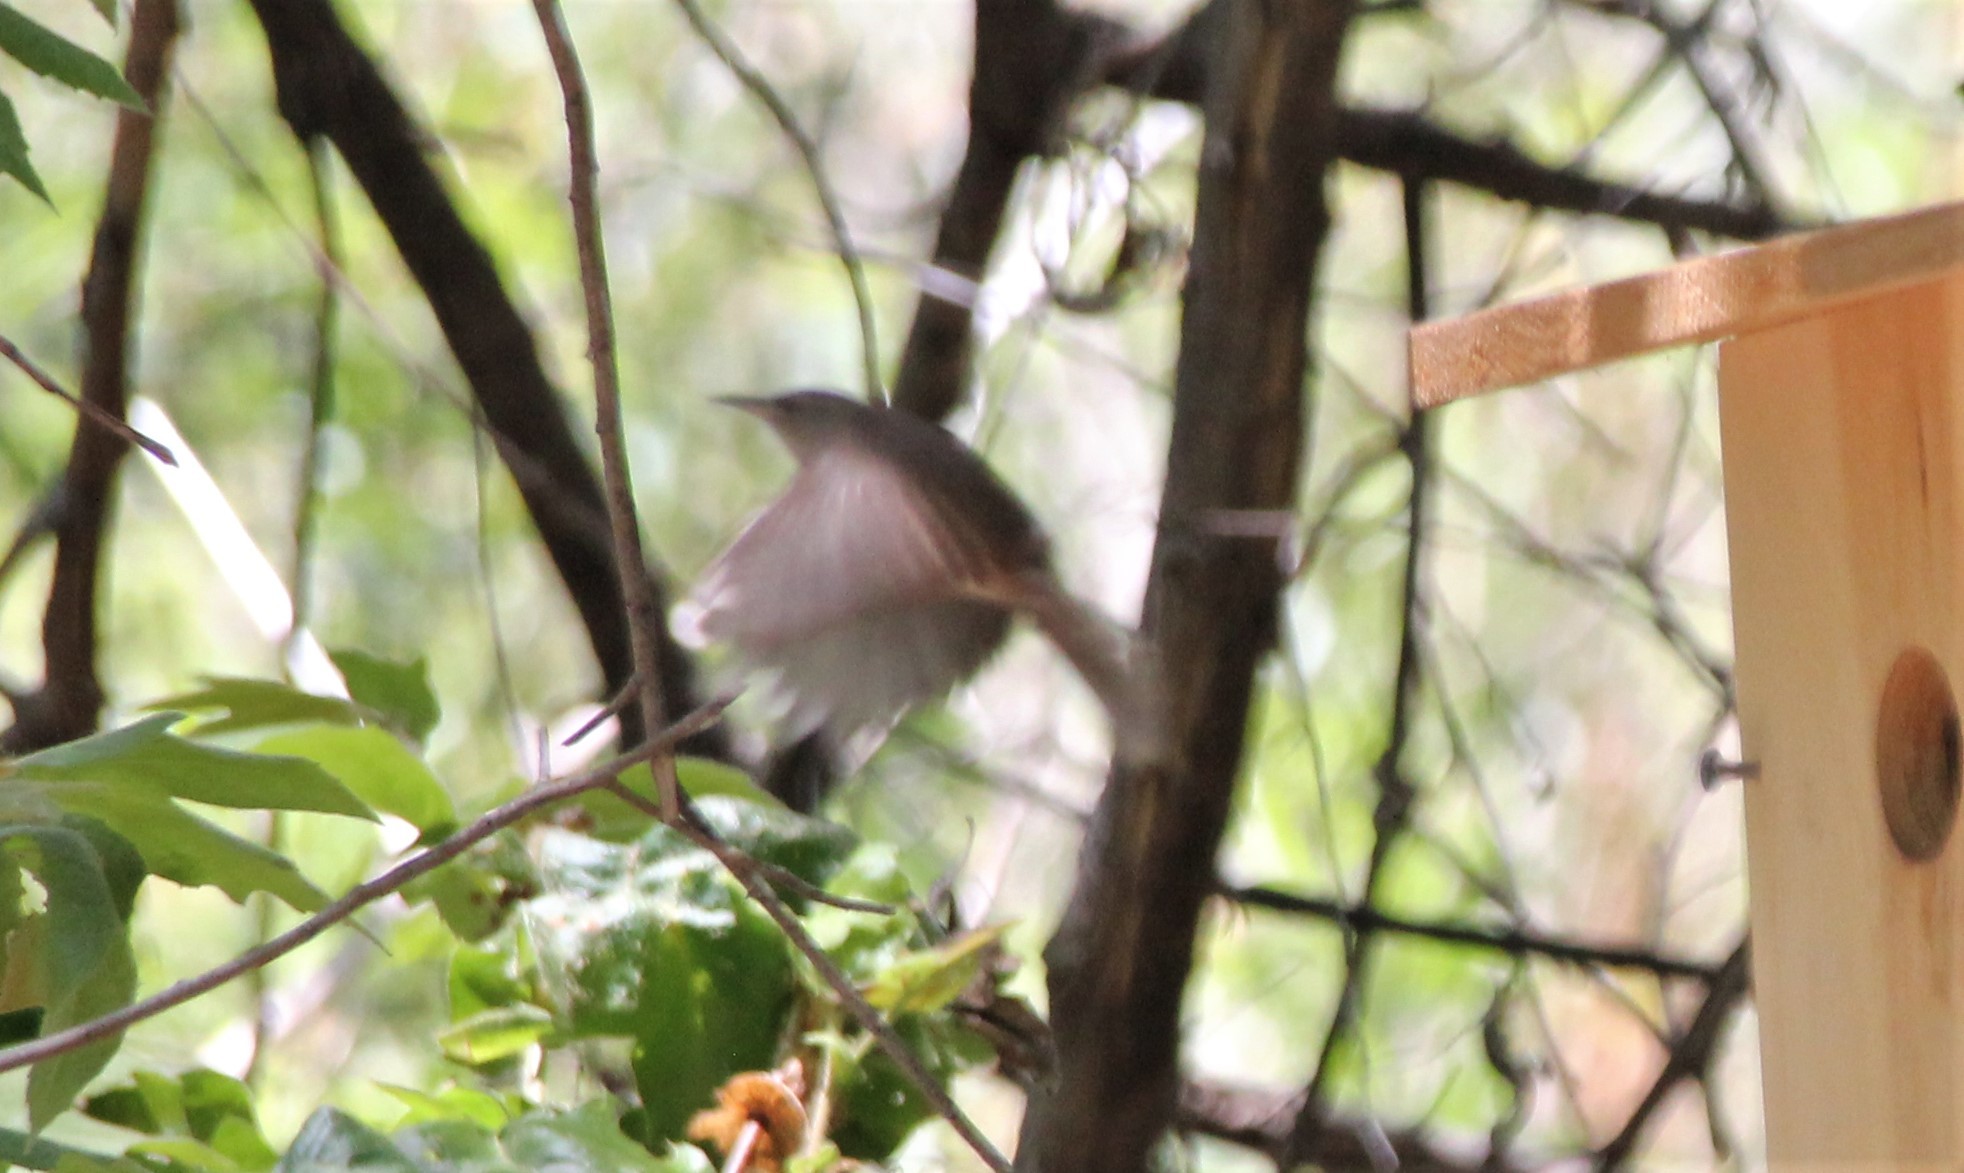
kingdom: Animalia
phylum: Chordata
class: Aves
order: Passeriformes
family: Troglodytidae
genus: Troglodytes
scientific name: Troglodytes aedon
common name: House wren
